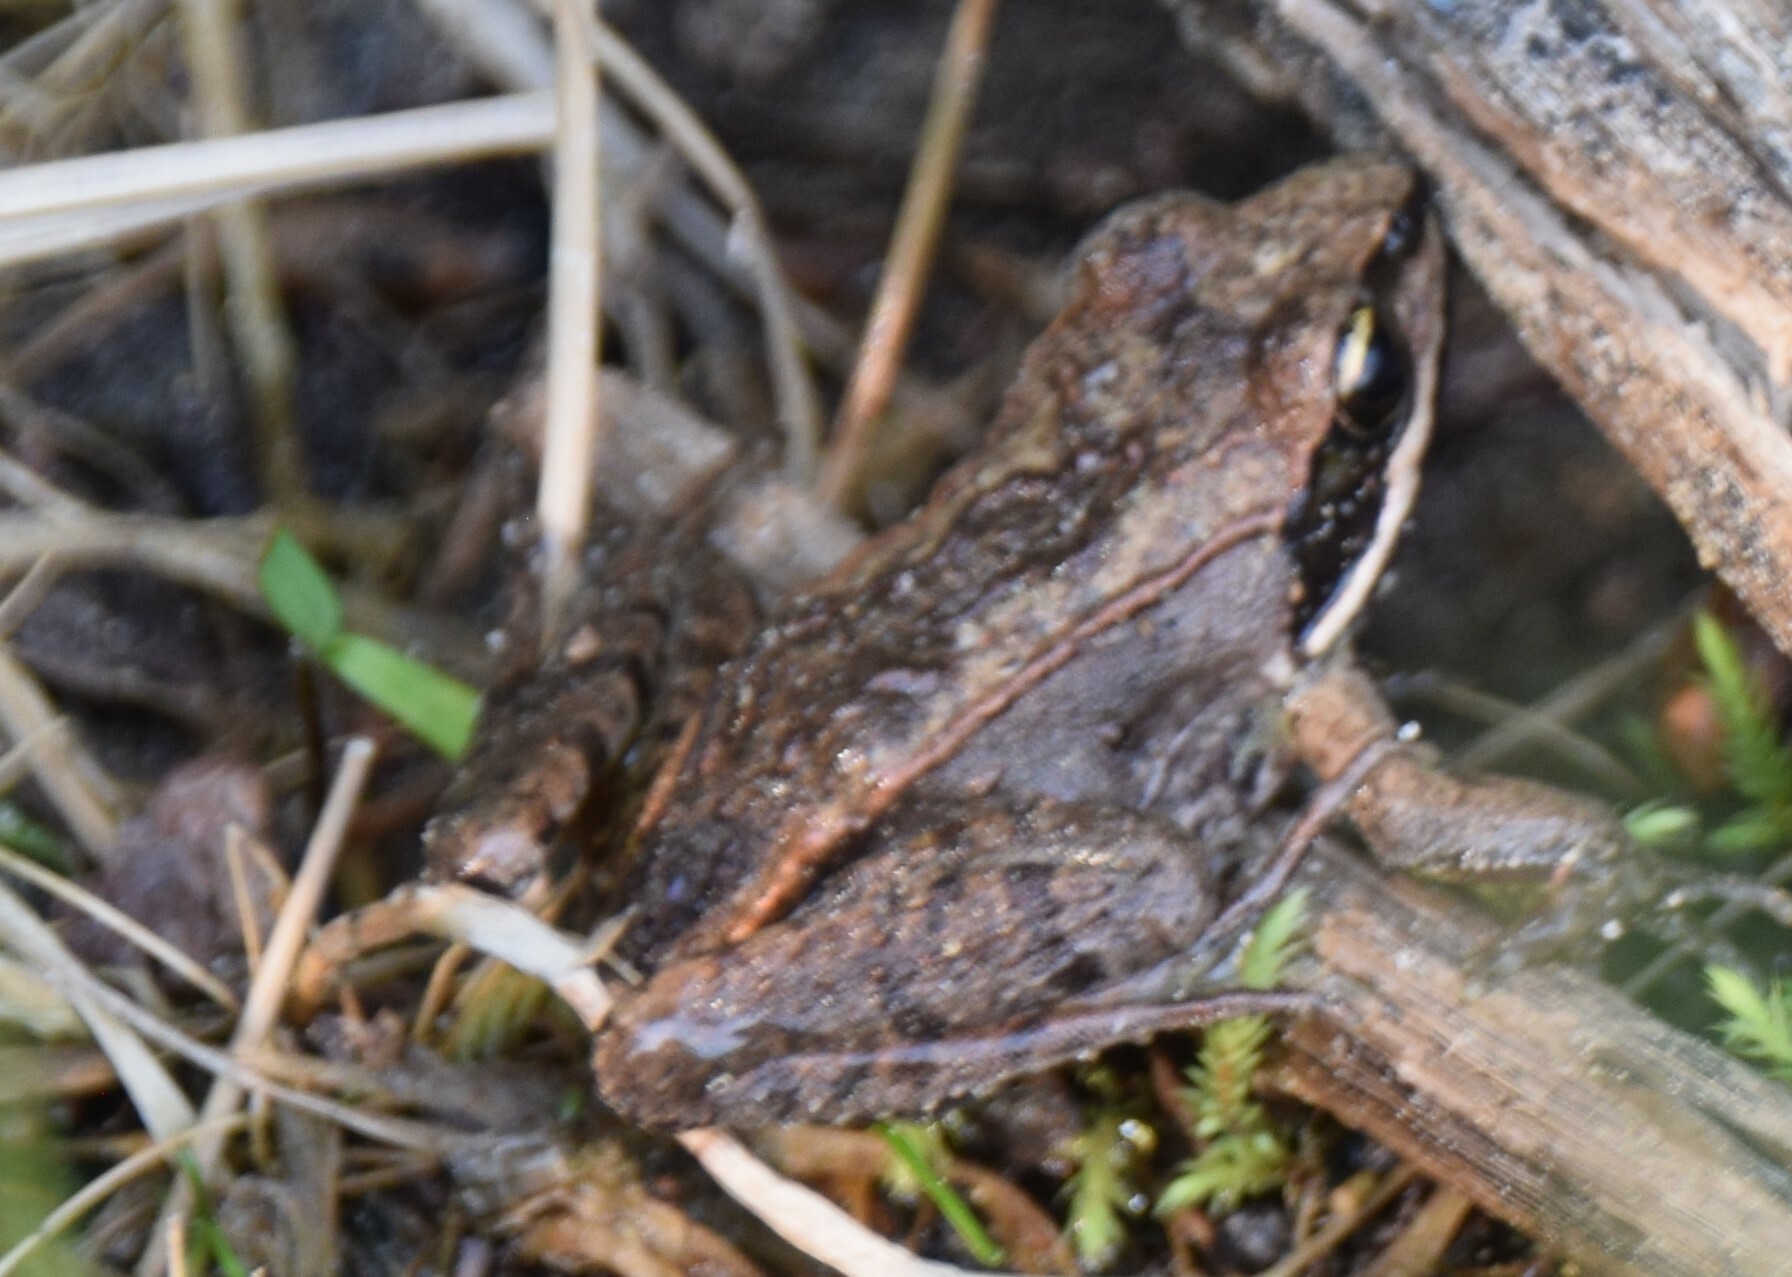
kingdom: Animalia
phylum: Chordata
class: Amphibia
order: Anura
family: Ranidae
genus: Lithobates
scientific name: Lithobates sylvaticus
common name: Wood frog
